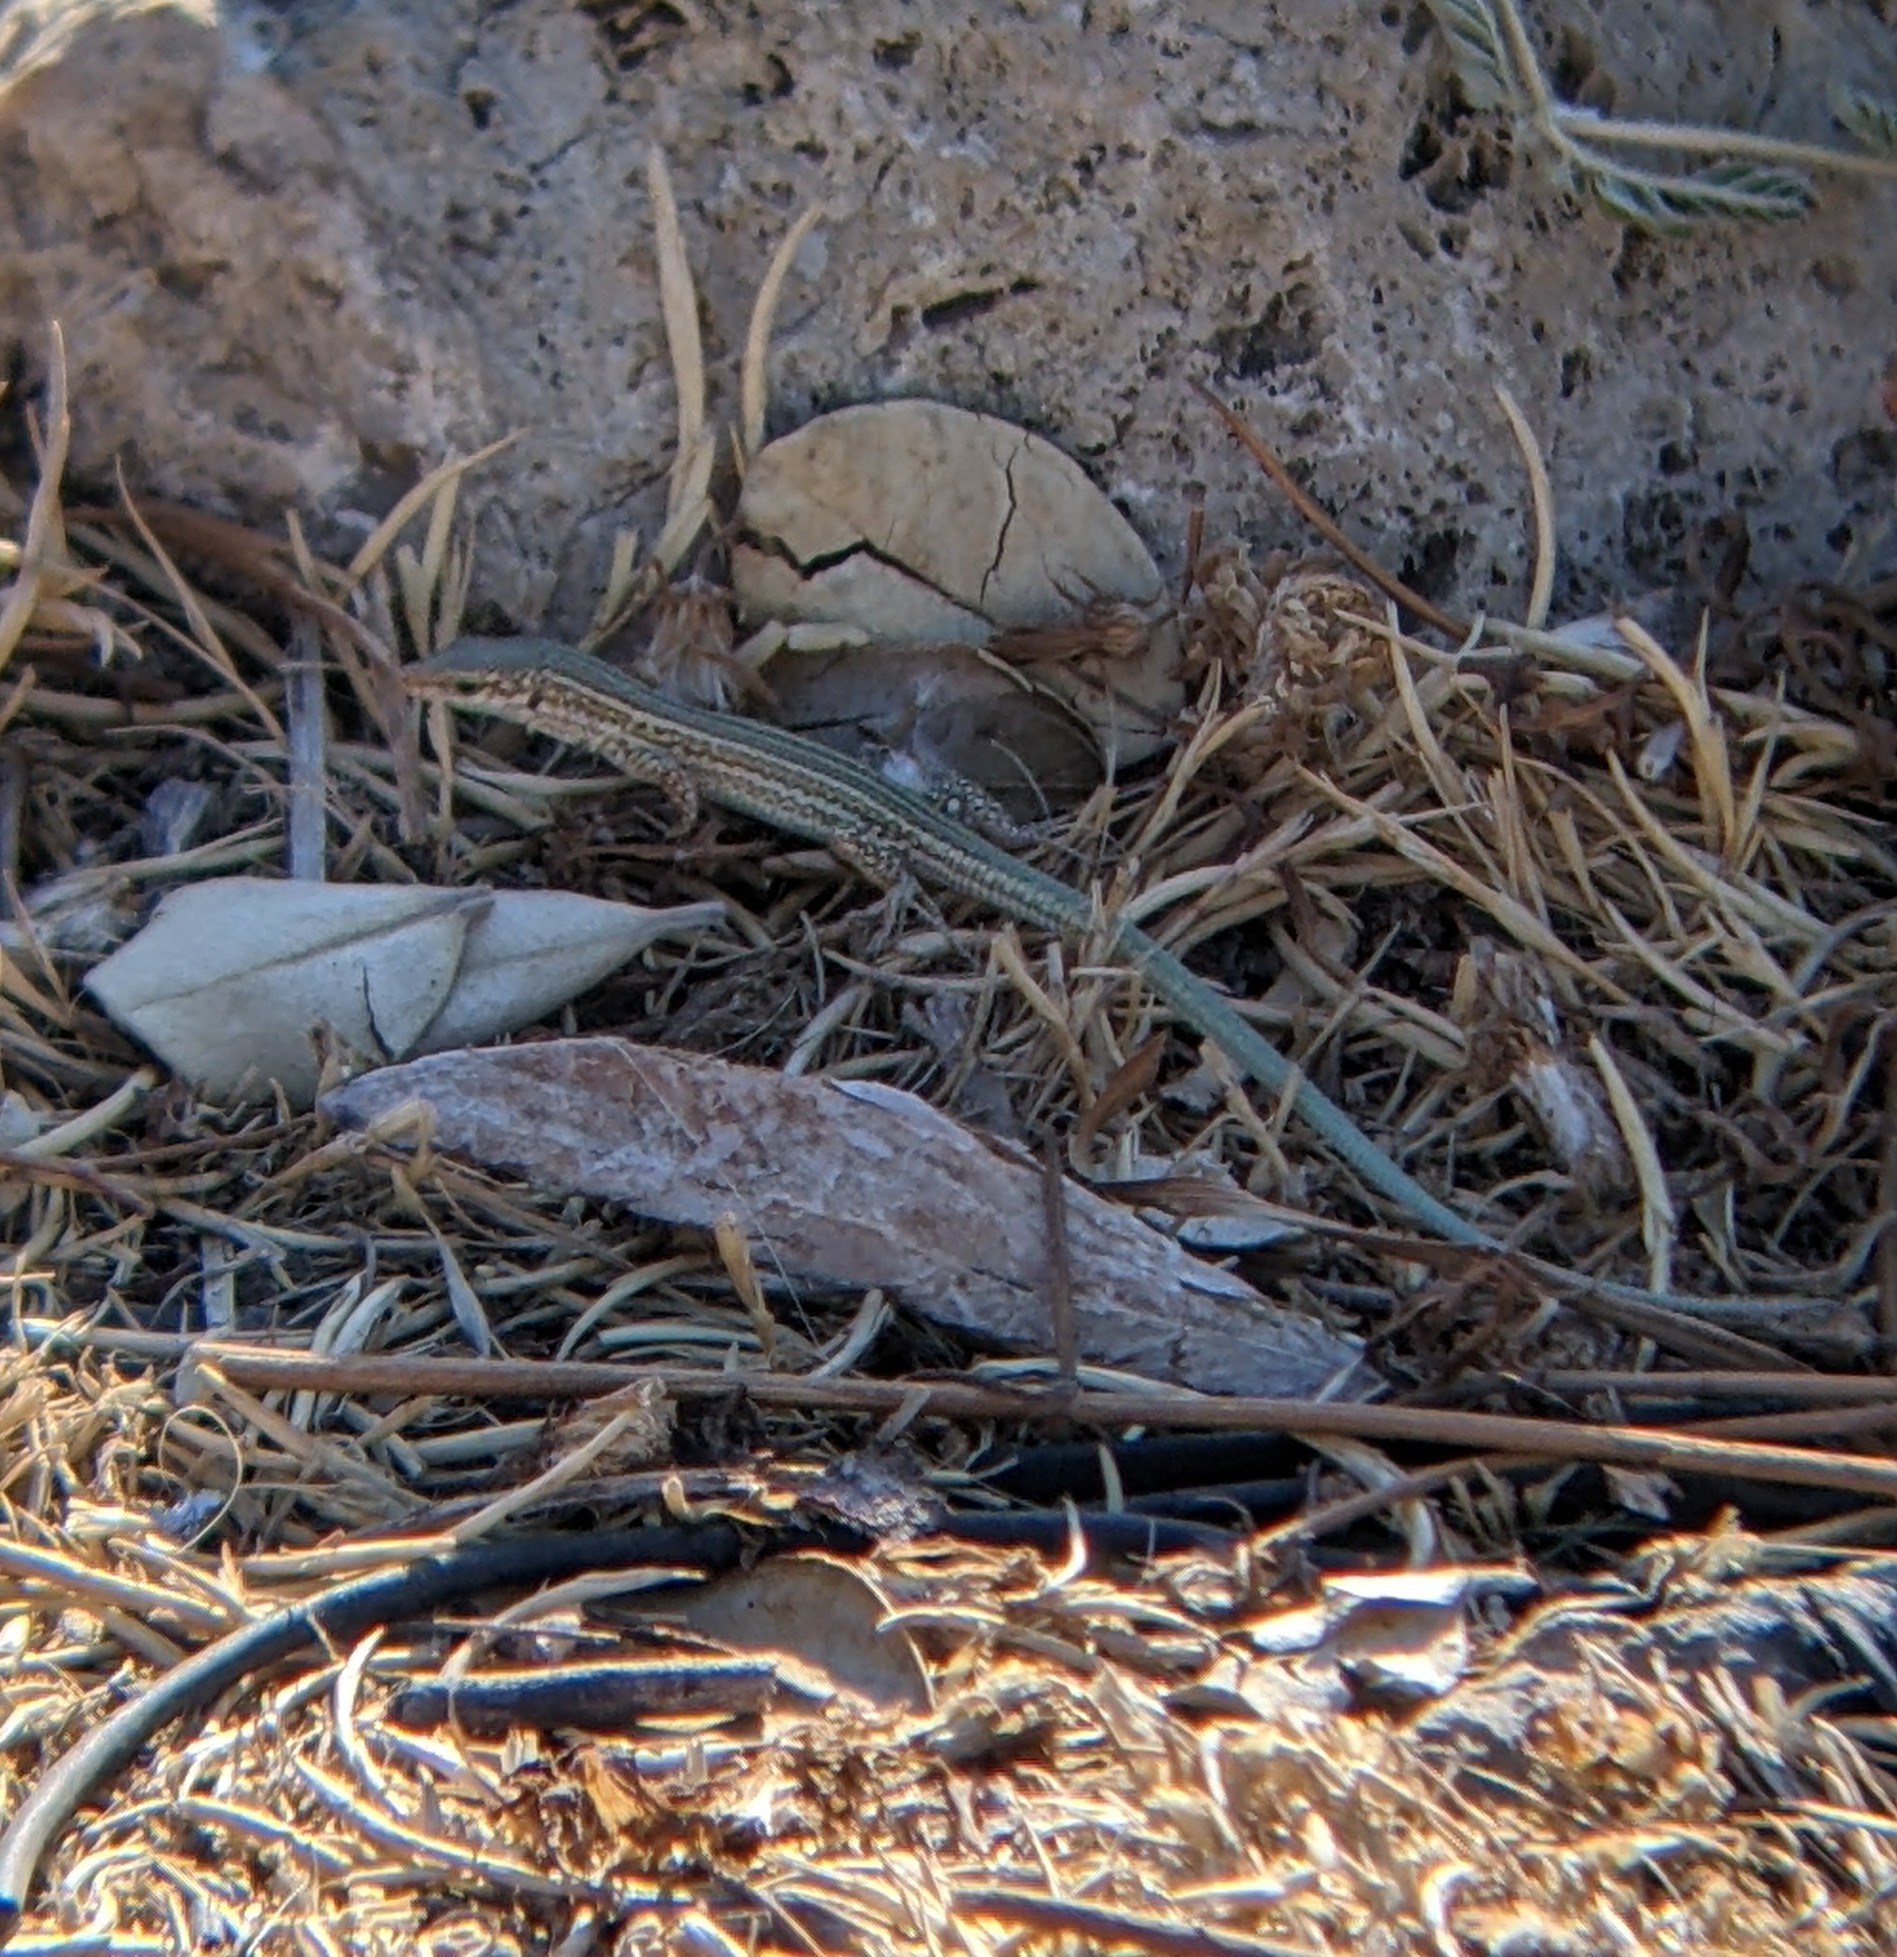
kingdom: Animalia
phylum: Chordata
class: Squamata
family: Lacertidae
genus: Podarcis
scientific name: Podarcis pityusensis
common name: Ibiza wall lizard
